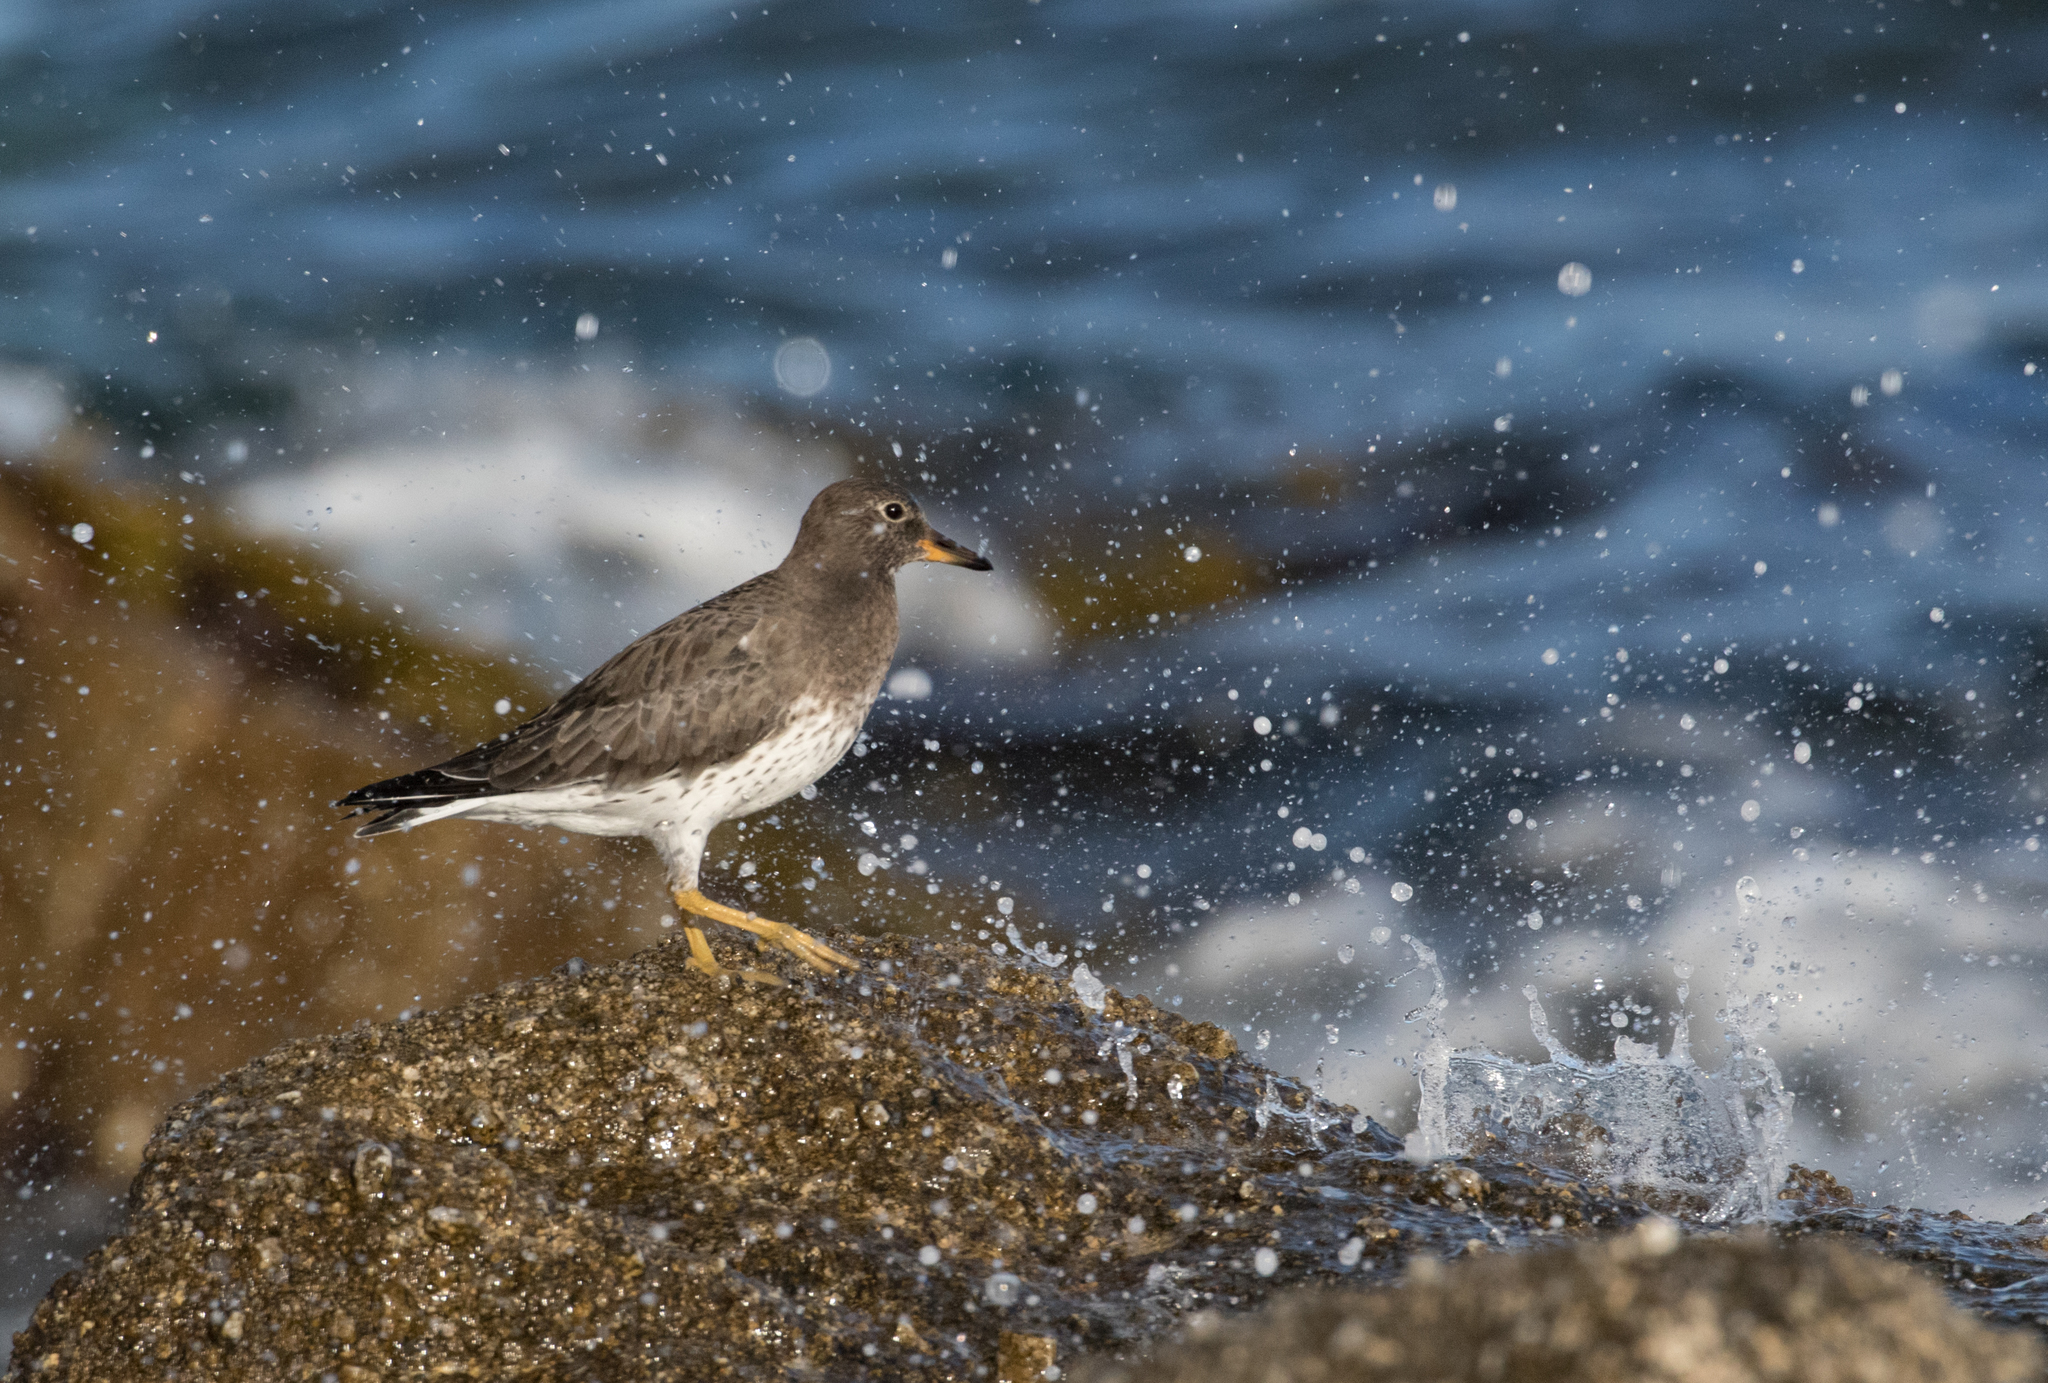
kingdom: Animalia
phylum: Chordata
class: Aves
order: Charadriiformes
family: Scolopacidae
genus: Calidris
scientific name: Calidris virgata
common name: Surfbird
